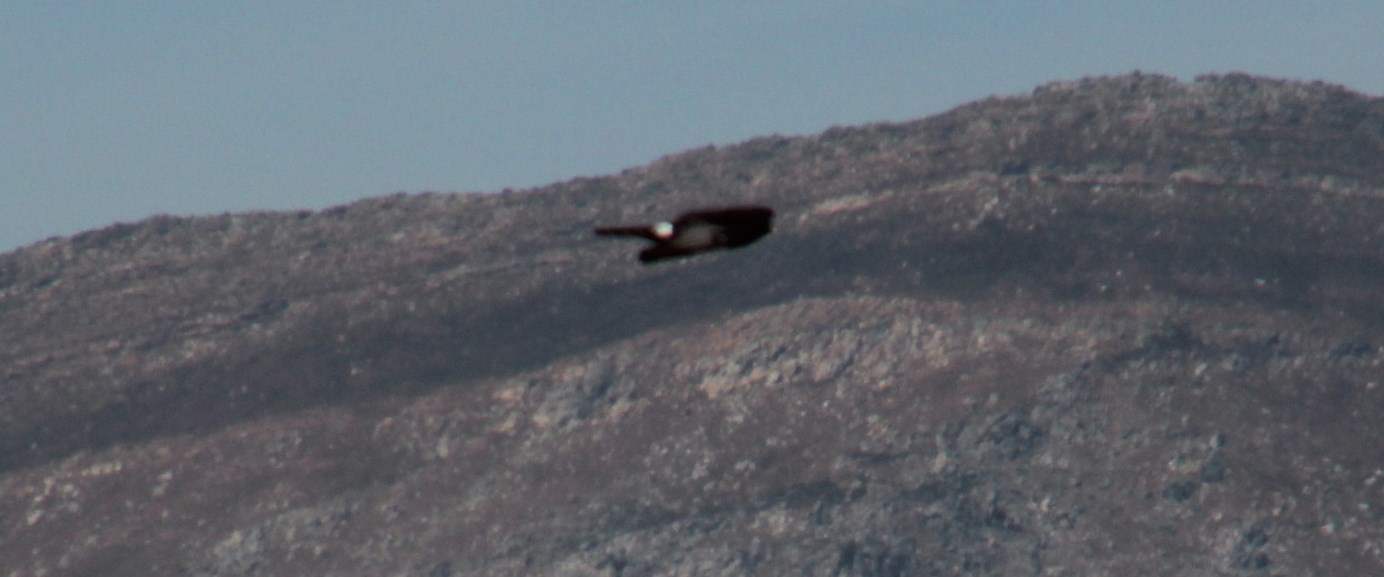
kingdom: Animalia
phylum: Chordata
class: Aves
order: Accipitriformes
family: Accipitridae
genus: Circus
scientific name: Circus maurus
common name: Black harrier
